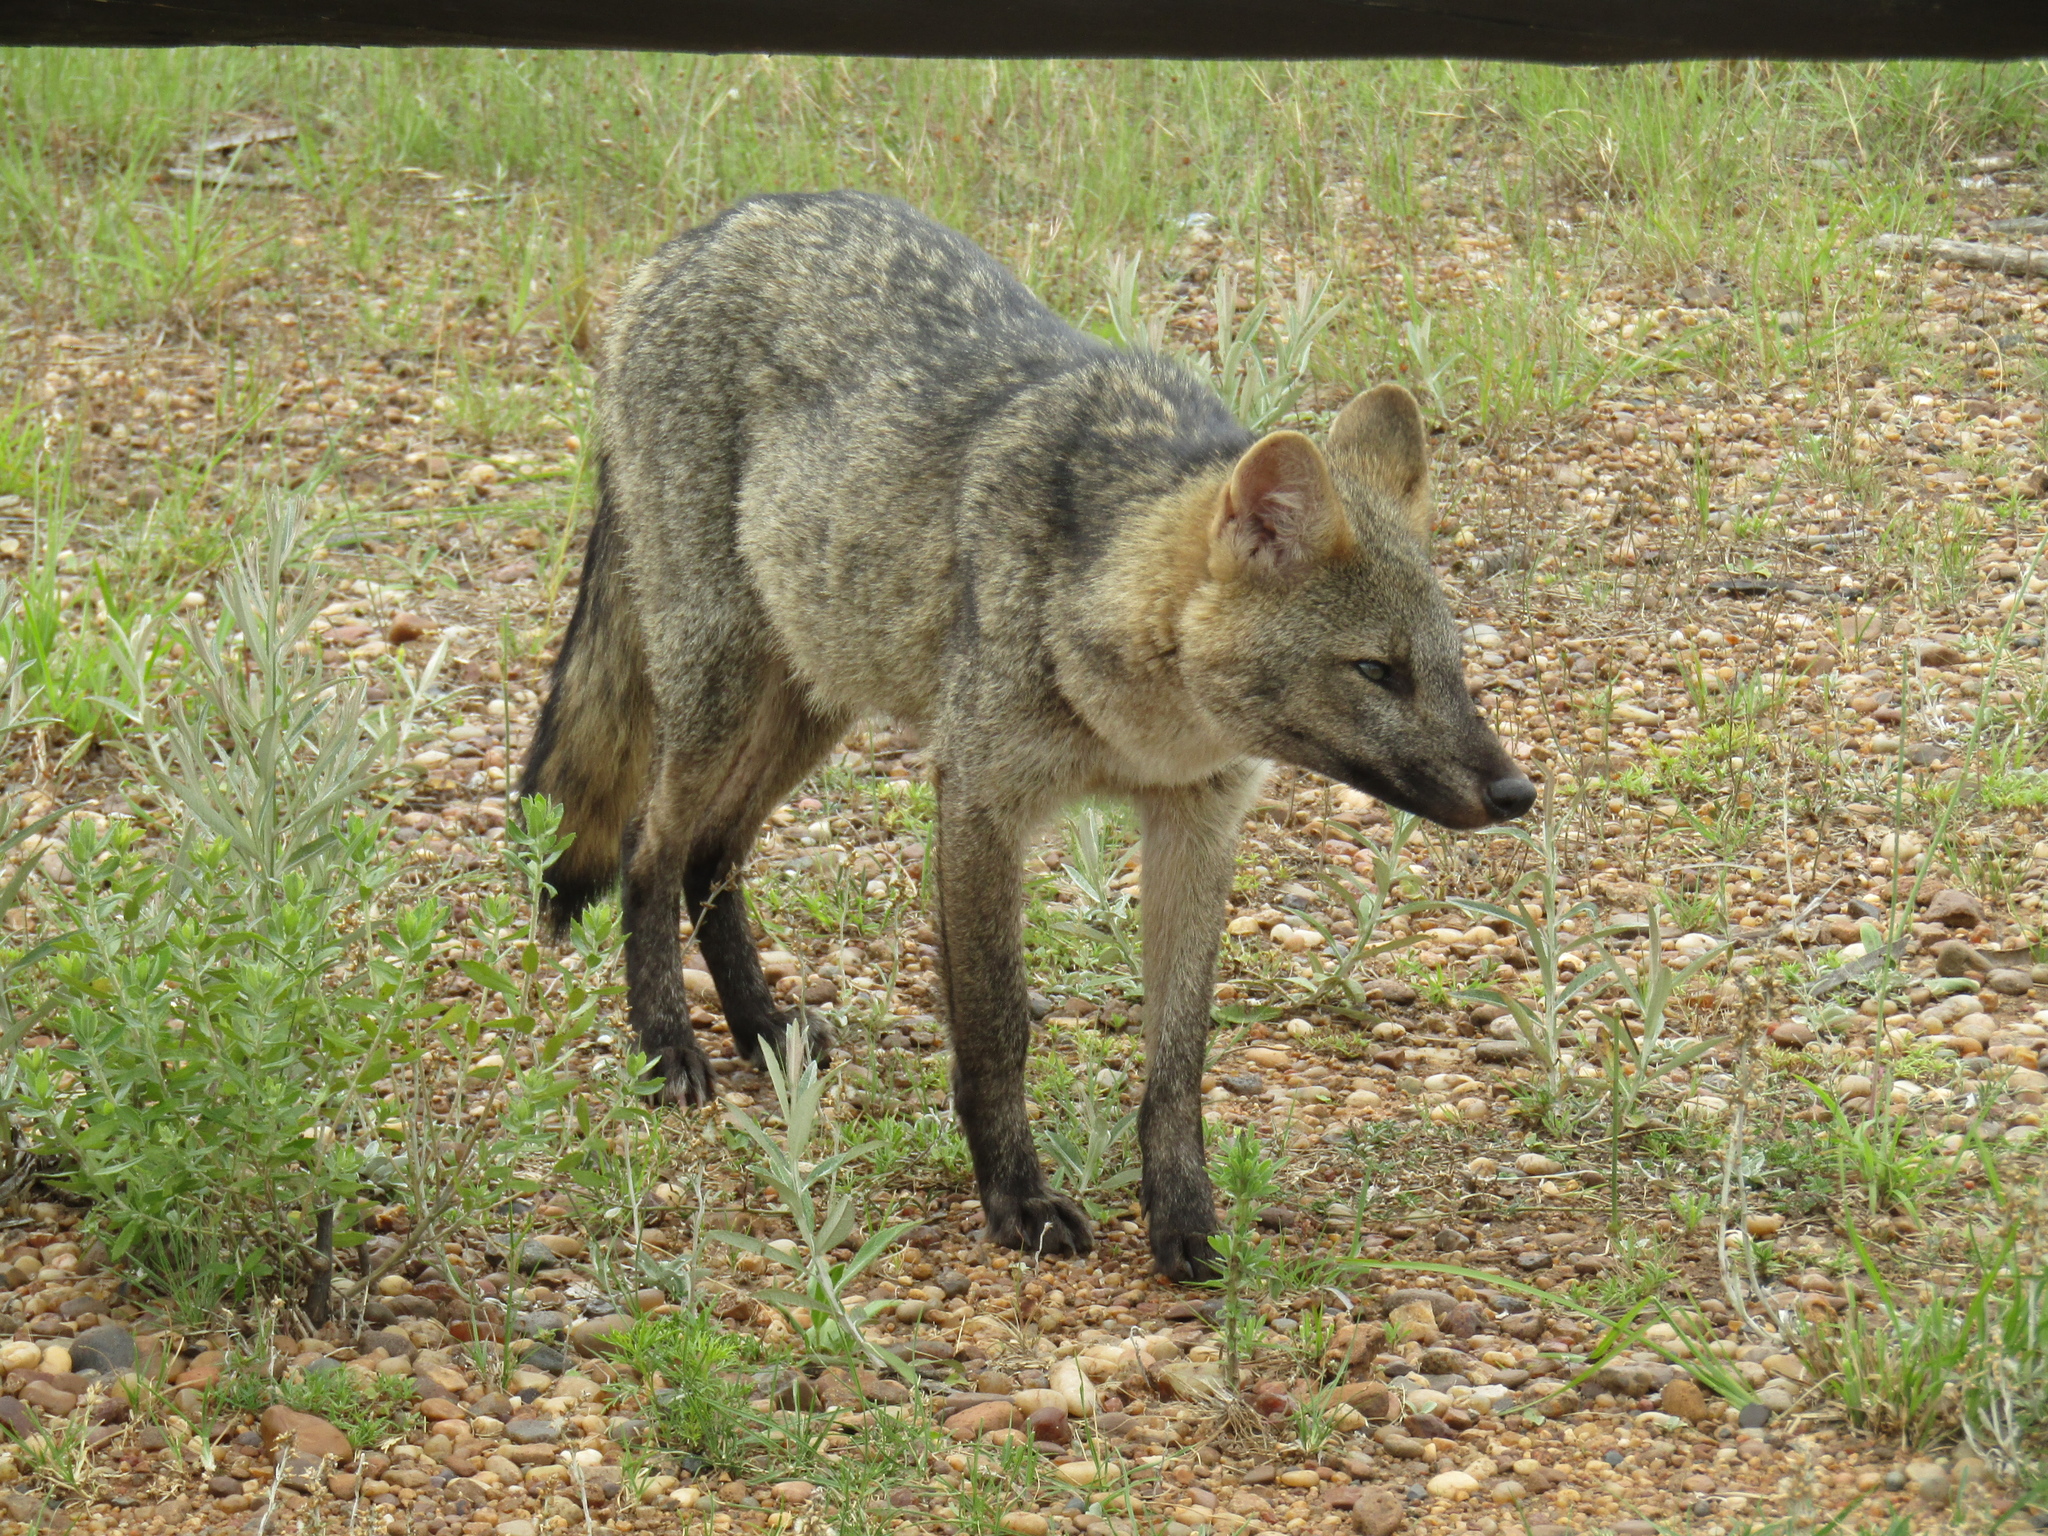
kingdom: Animalia
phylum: Chordata
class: Mammalia
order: Carnivora
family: Canidae
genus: Cerdocyon
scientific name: Cerdocyon thous
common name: Crab-eating fox
